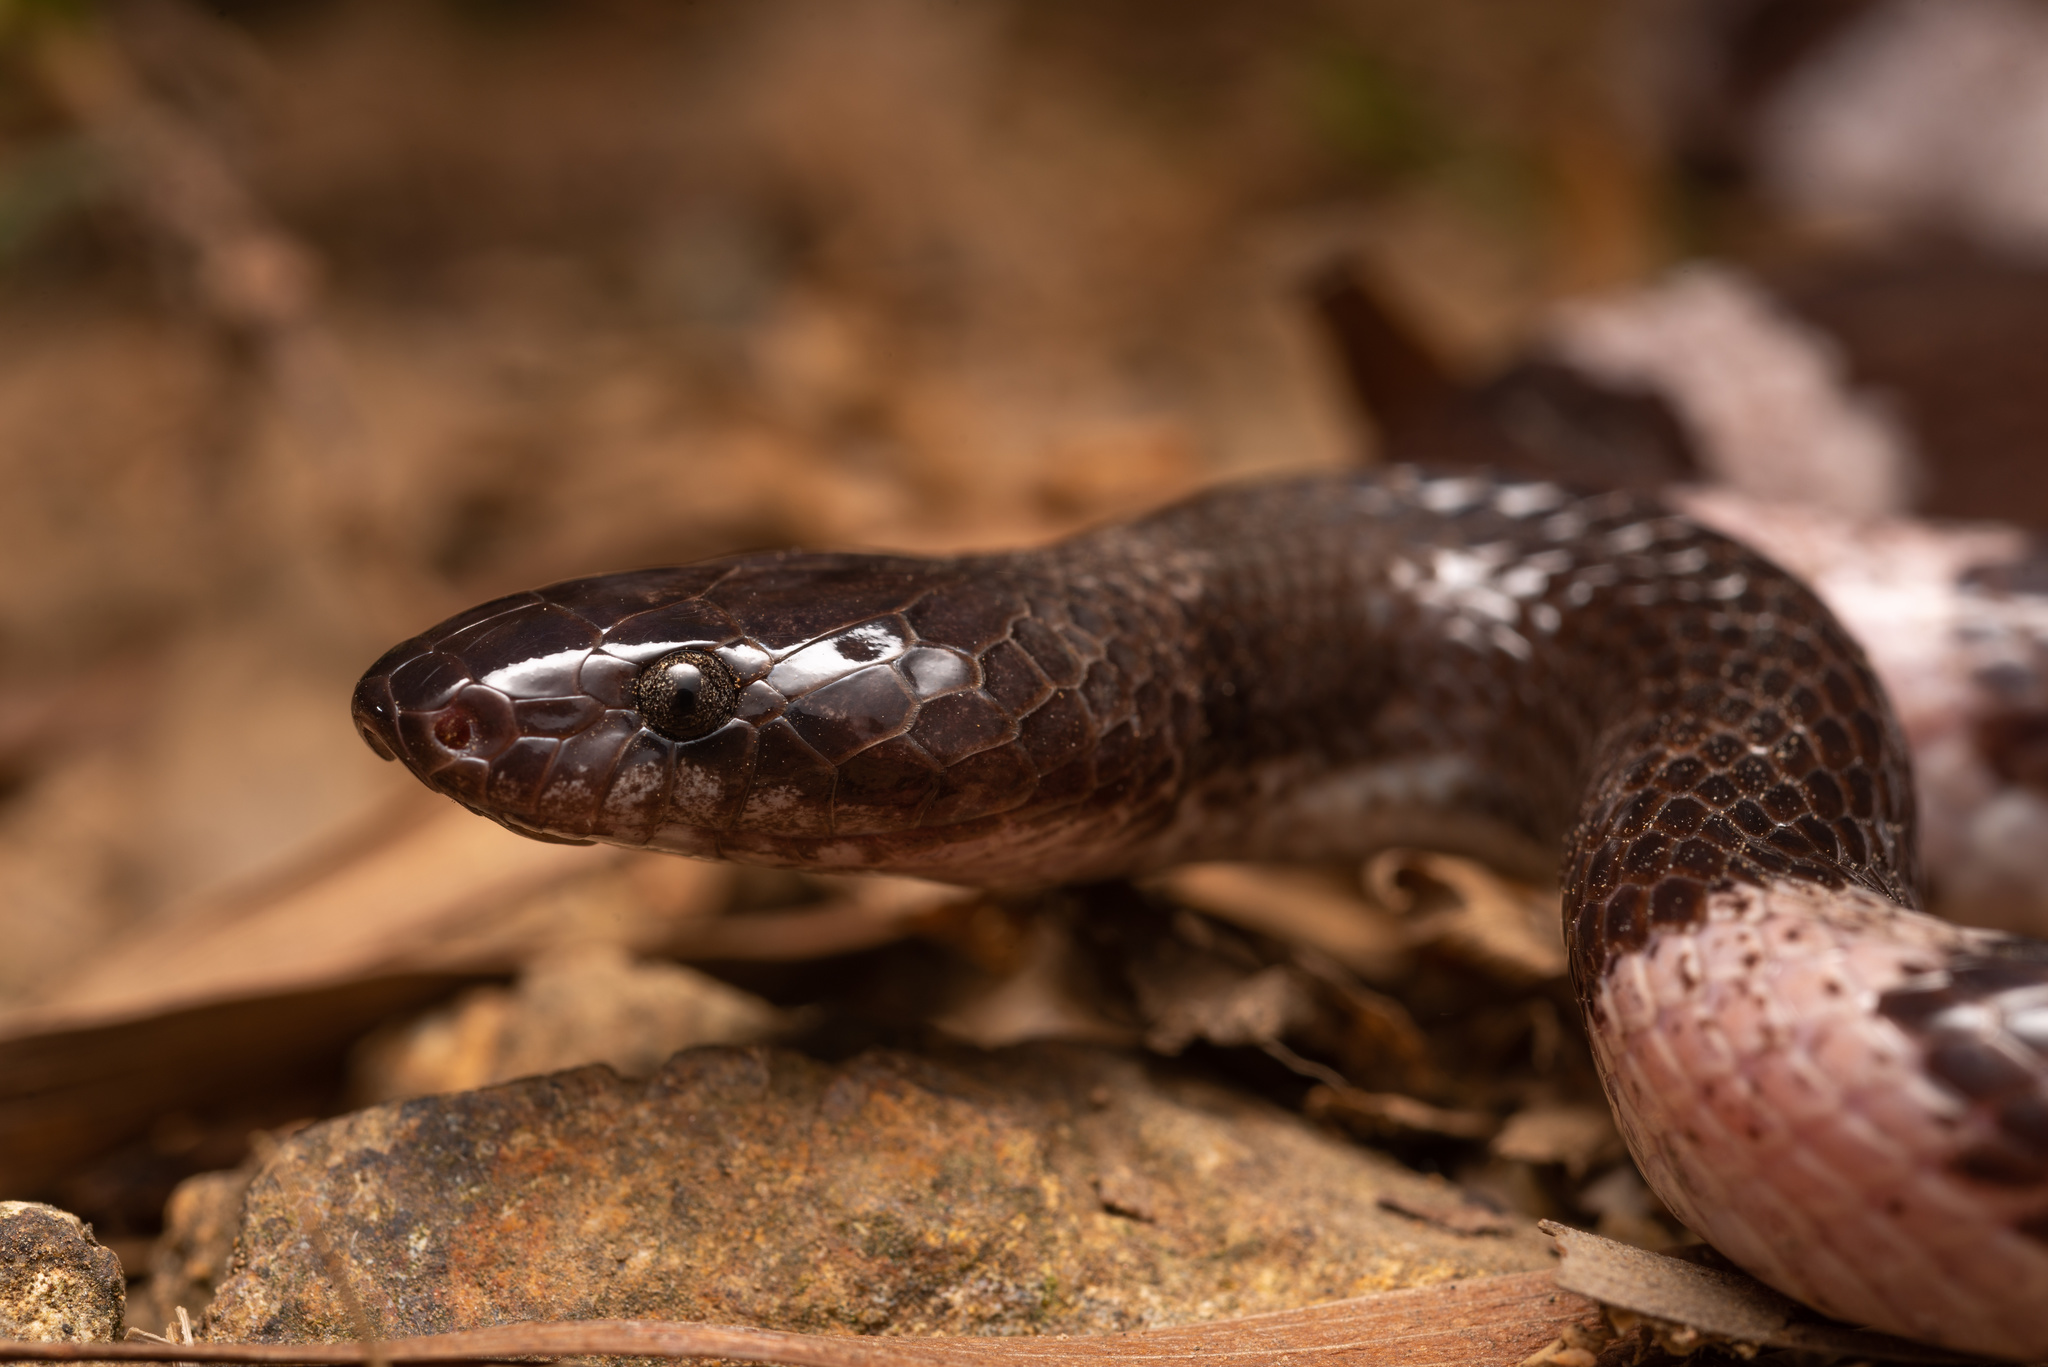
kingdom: Animalia
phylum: Chordata
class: Squamata
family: Colubridae
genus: Lycodon
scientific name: Lycodon futsingensis
